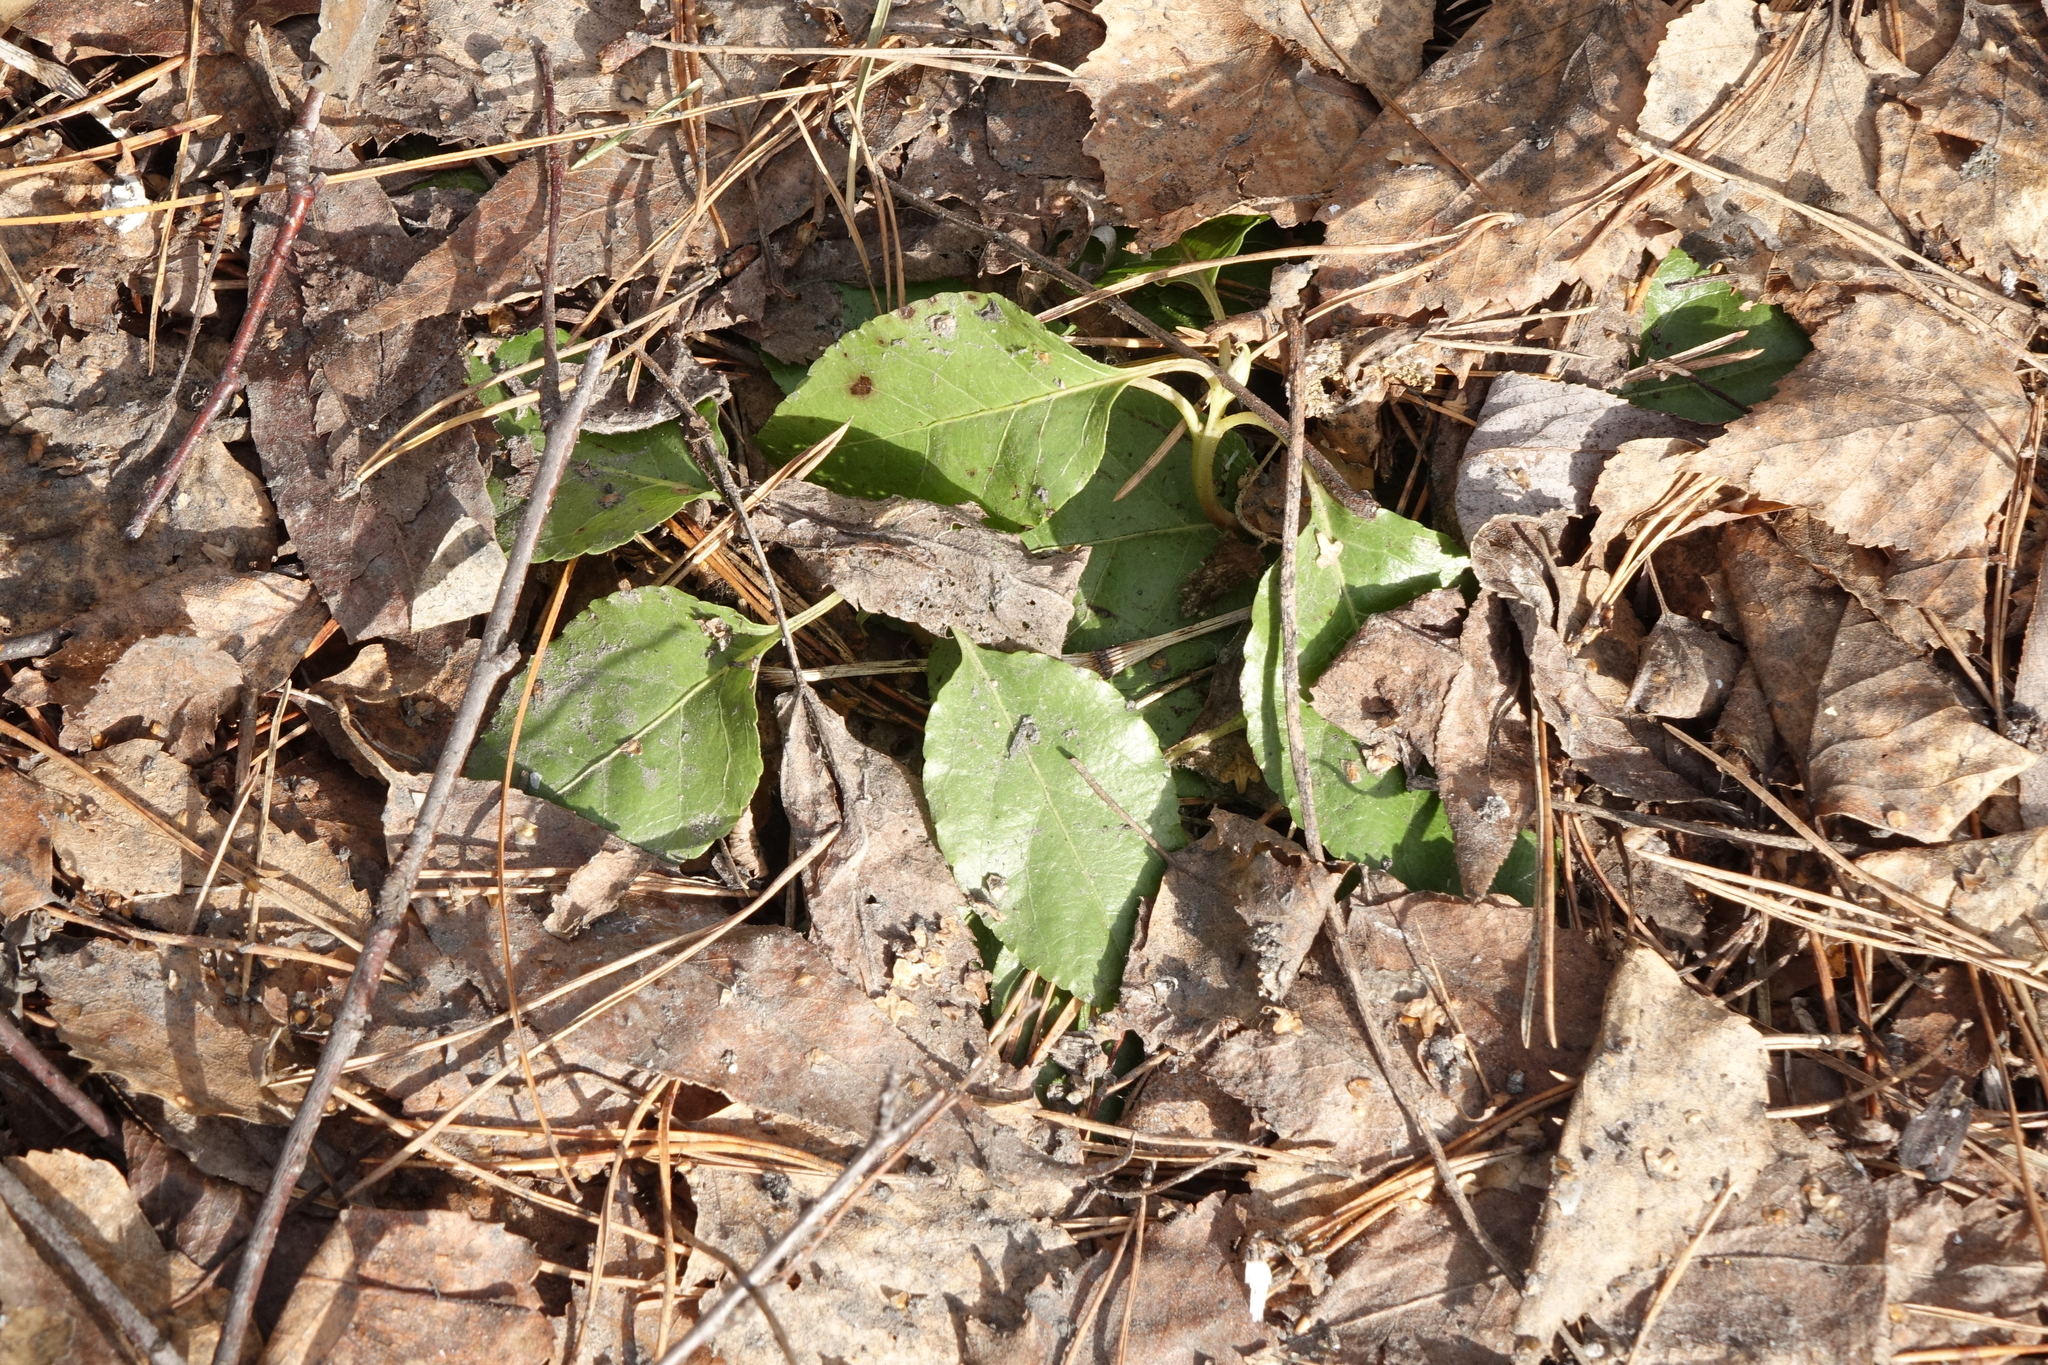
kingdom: Plantae
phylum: Tracheophyta
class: Magnoliopsida
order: Ericales
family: Ericaceae
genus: Orthilia
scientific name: Orthilia secunda
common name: One-sided orthilia
